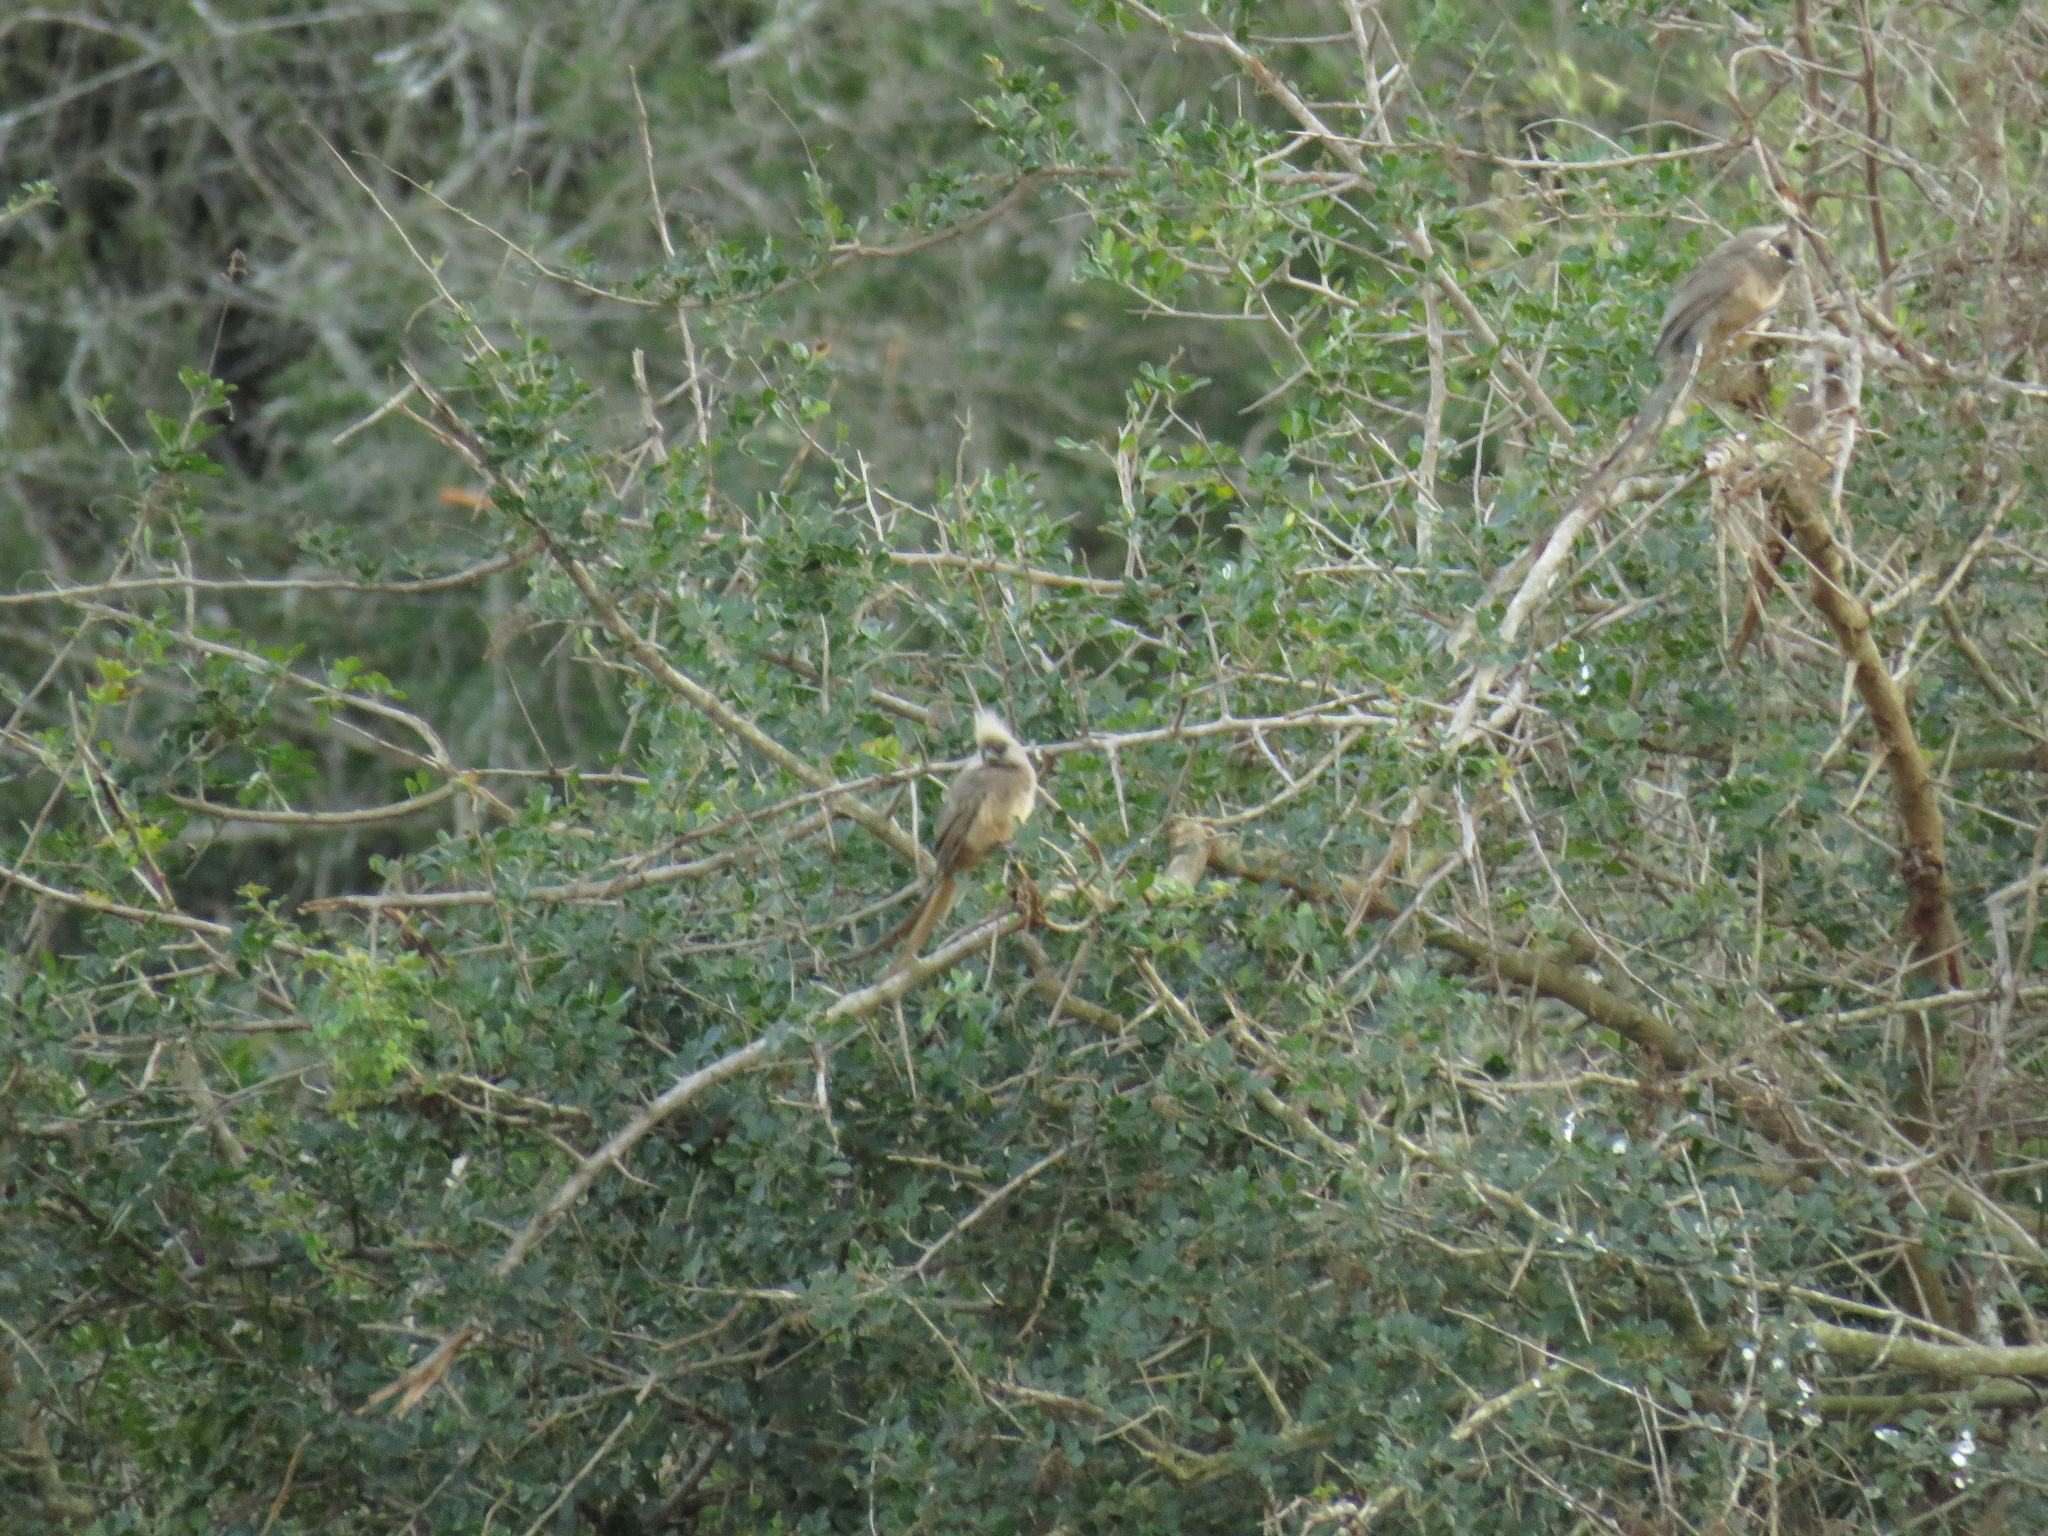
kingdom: Animalia
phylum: Chordata
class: Aves
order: Coliiformes
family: Coliidae
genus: Colius
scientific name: Colius striatus
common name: Speckled mousebird
